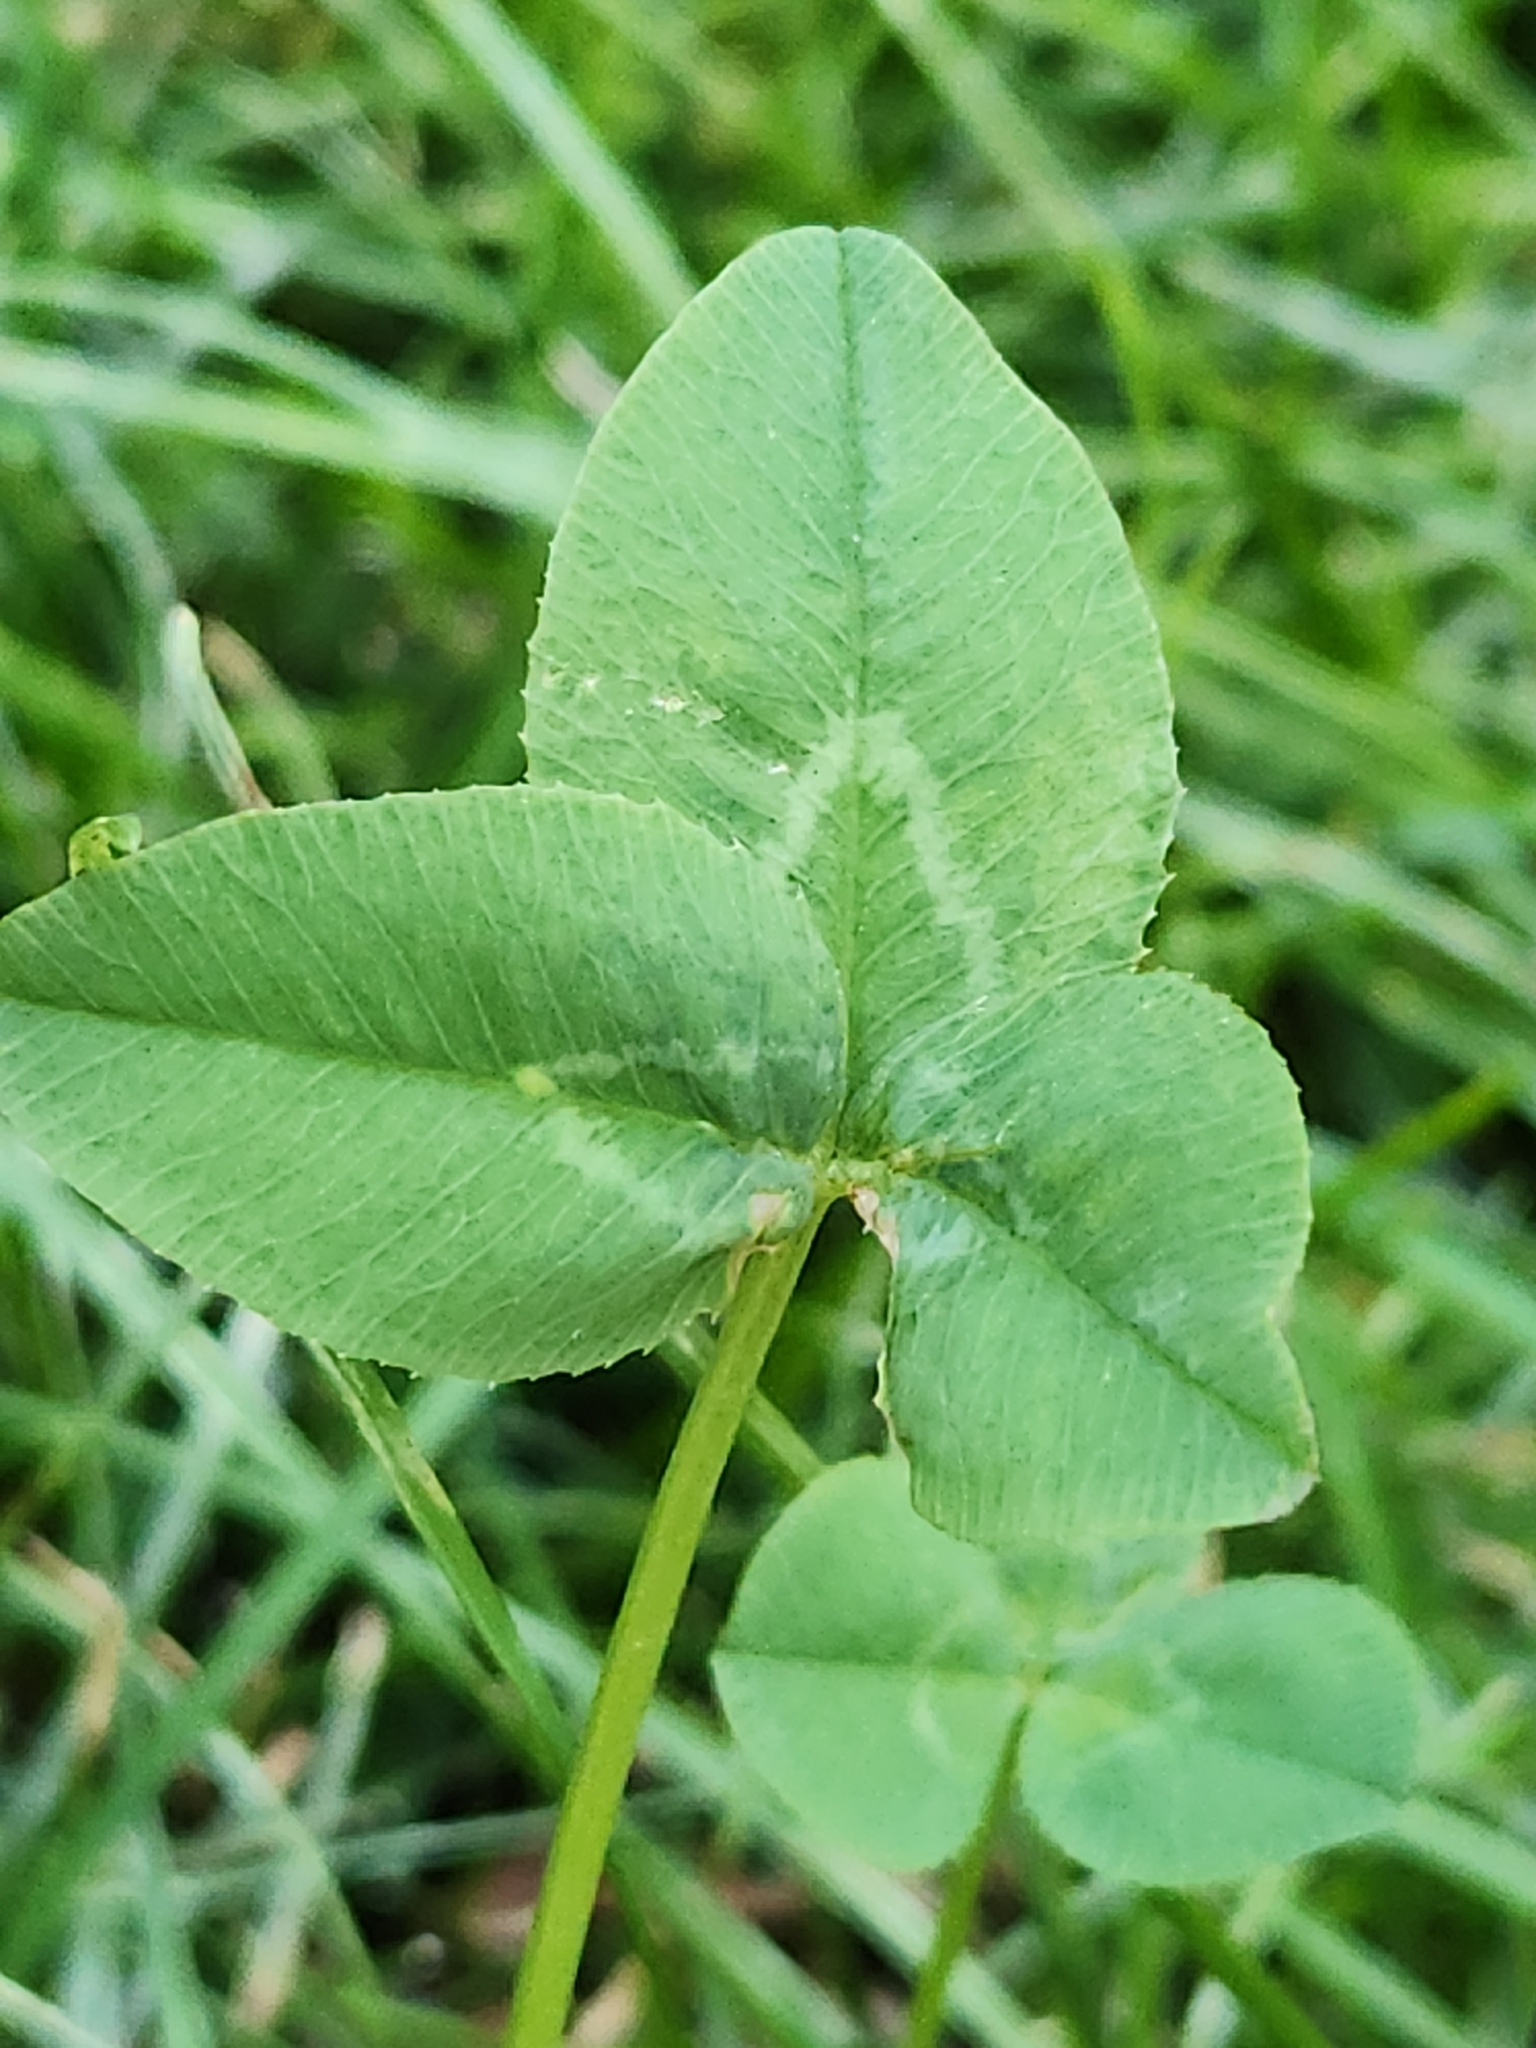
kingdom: Plantae
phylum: Tracheophyta
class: Magnoliopsida
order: Fabales
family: Fabaceae
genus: Trifolium
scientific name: Trifolium repens
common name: White clover
